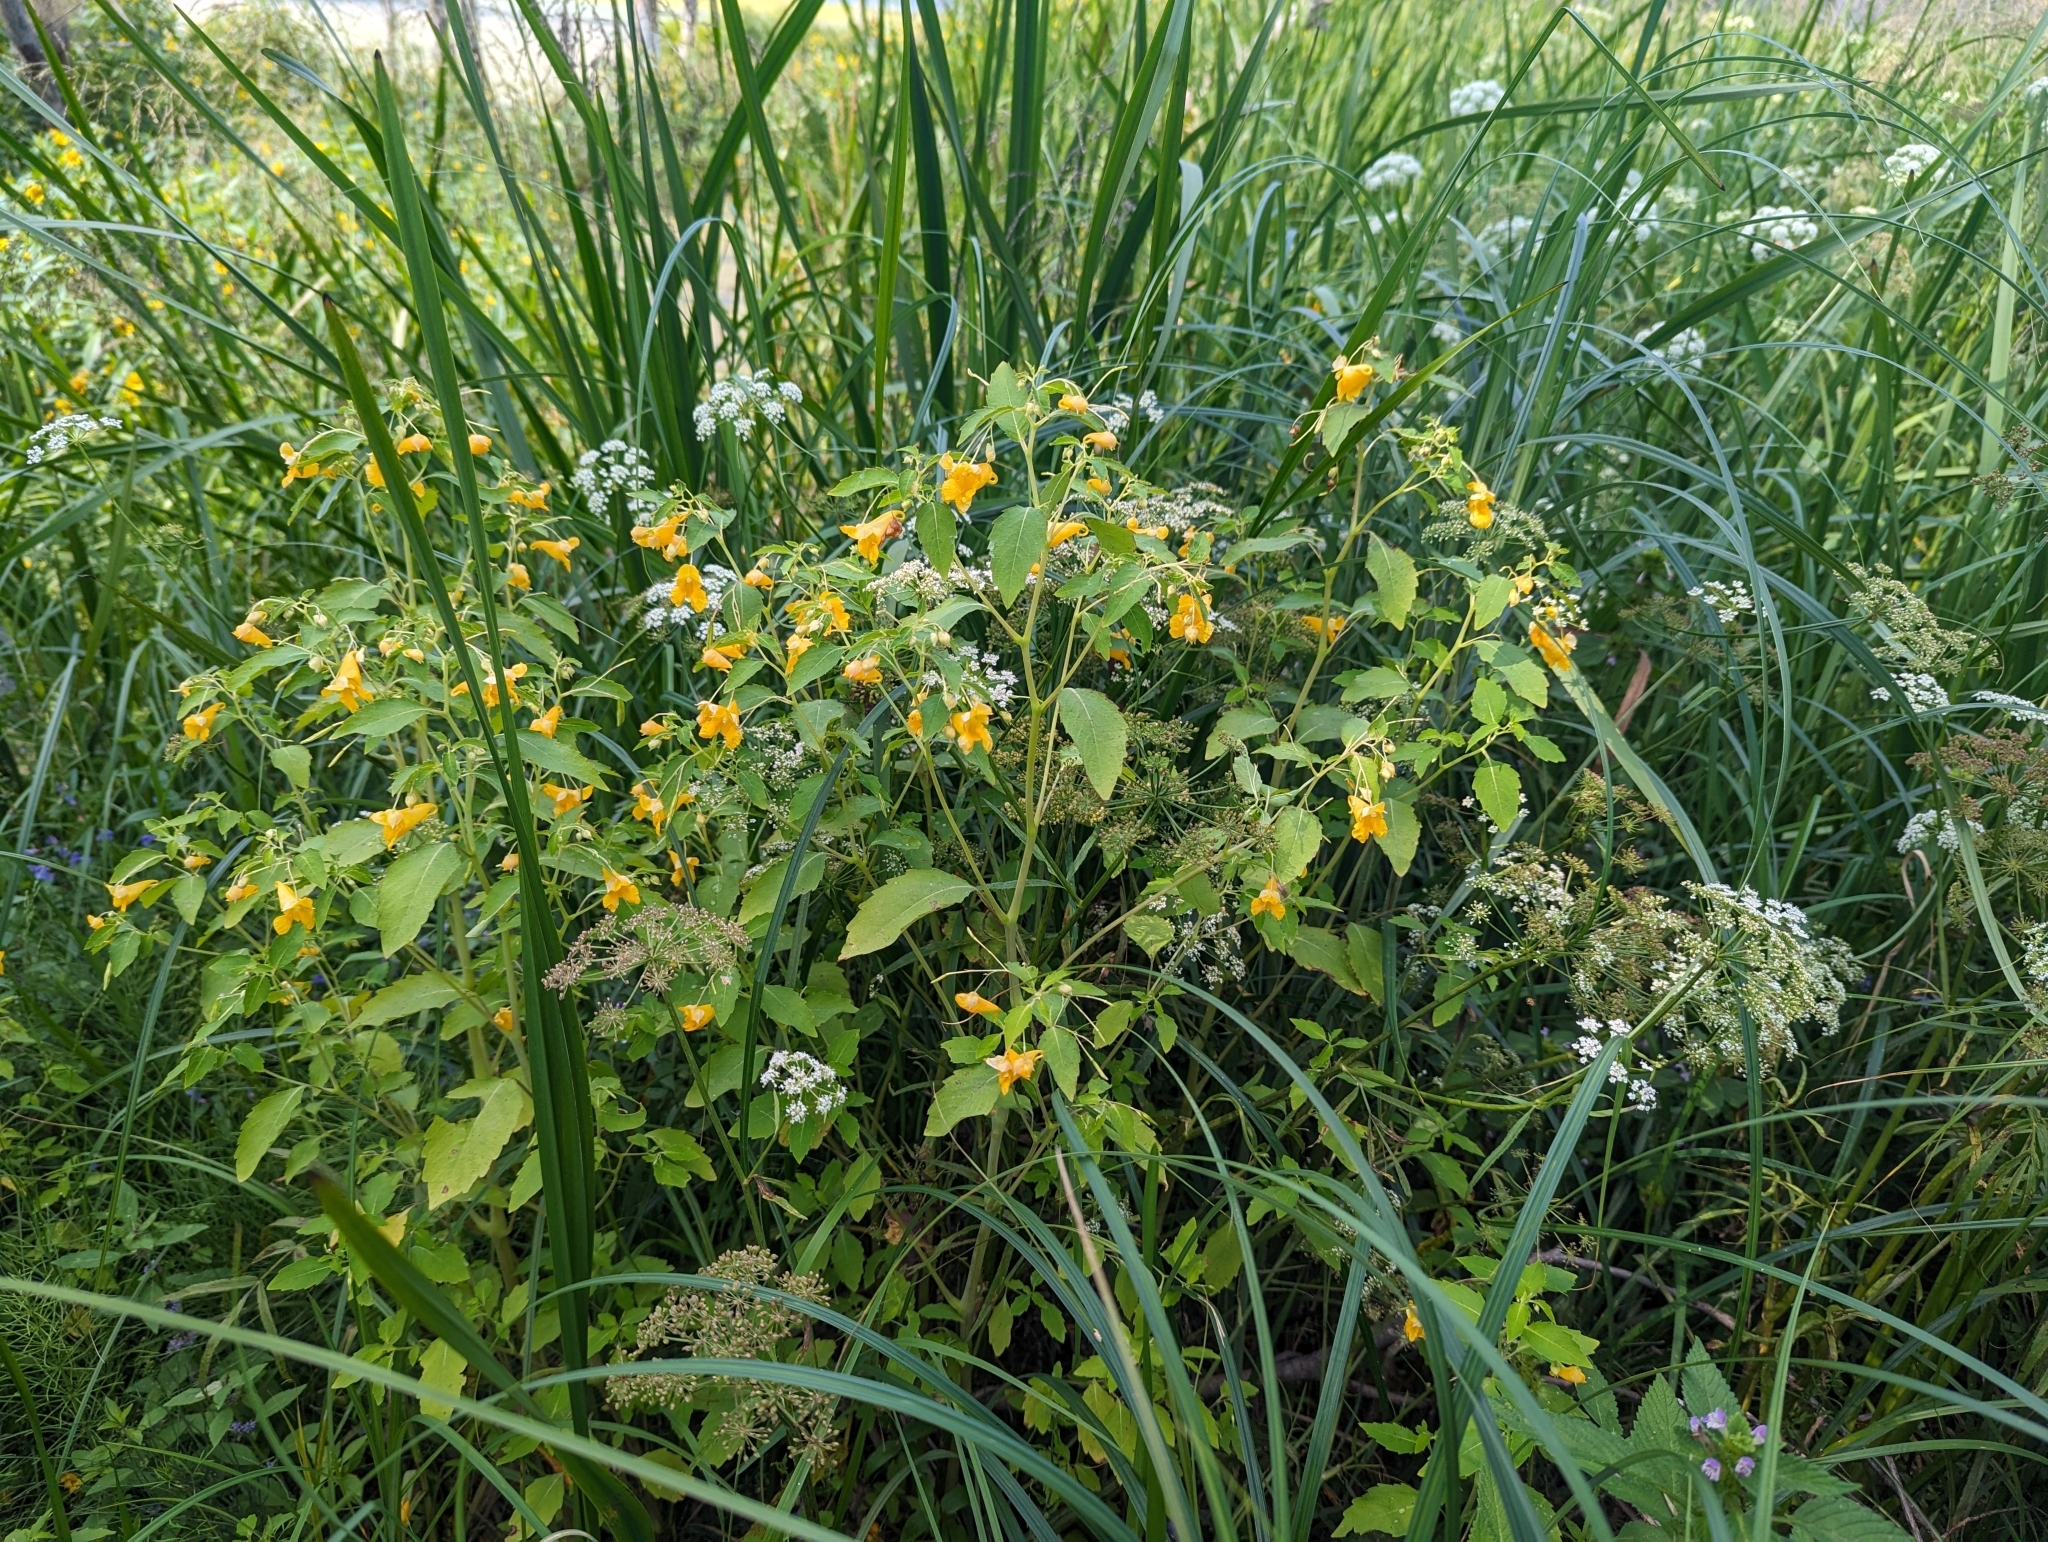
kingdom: Plantae
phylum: Tracheophyta
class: Magnoliopsida
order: Ericales
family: Balsaminaceae
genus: Impatiens
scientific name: Impatiens capensis
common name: Orange balsam
